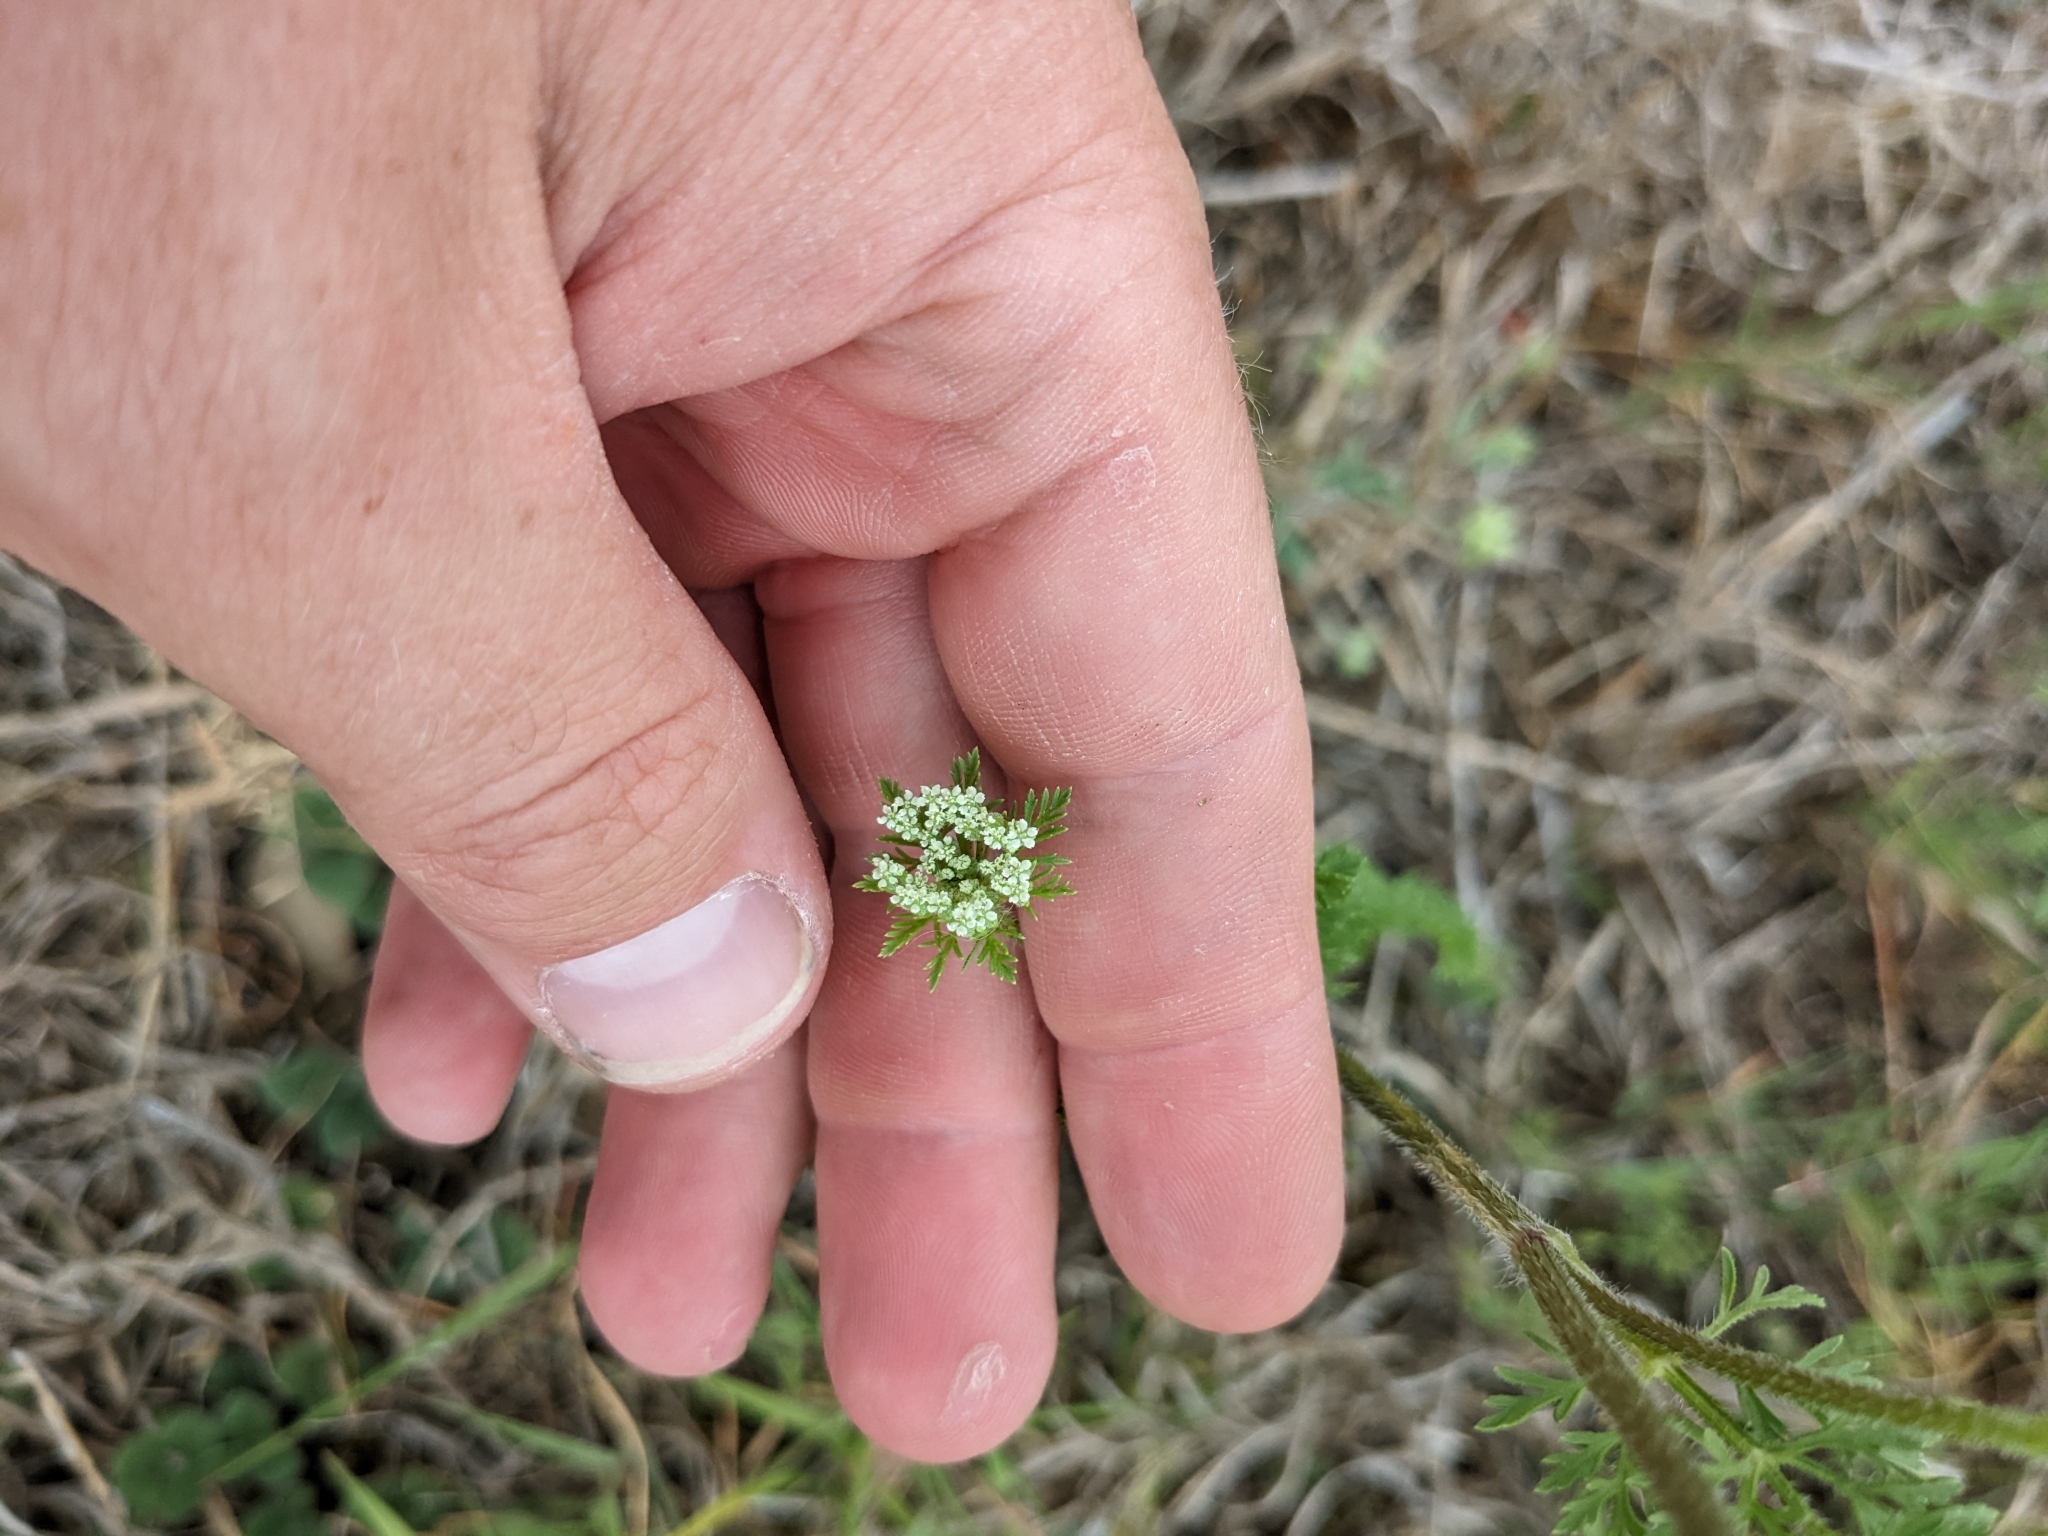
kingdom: Plantae
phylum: Tracheophyta
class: Magnoliopsida
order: Apiales
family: Apiaceae
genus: Daucus
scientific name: Daucus pusillus
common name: Southwest wild carrot
